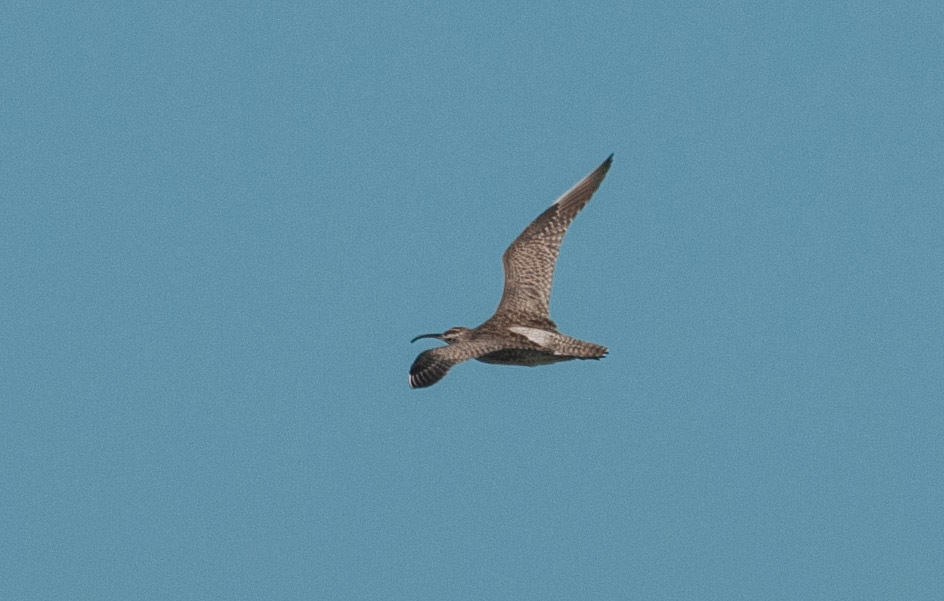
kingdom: Animalia
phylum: Chordata
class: Aves
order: Charadriiformes
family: Scolopacidae
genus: Numenius
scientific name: Numenius phaeopus
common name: Whimbrel
